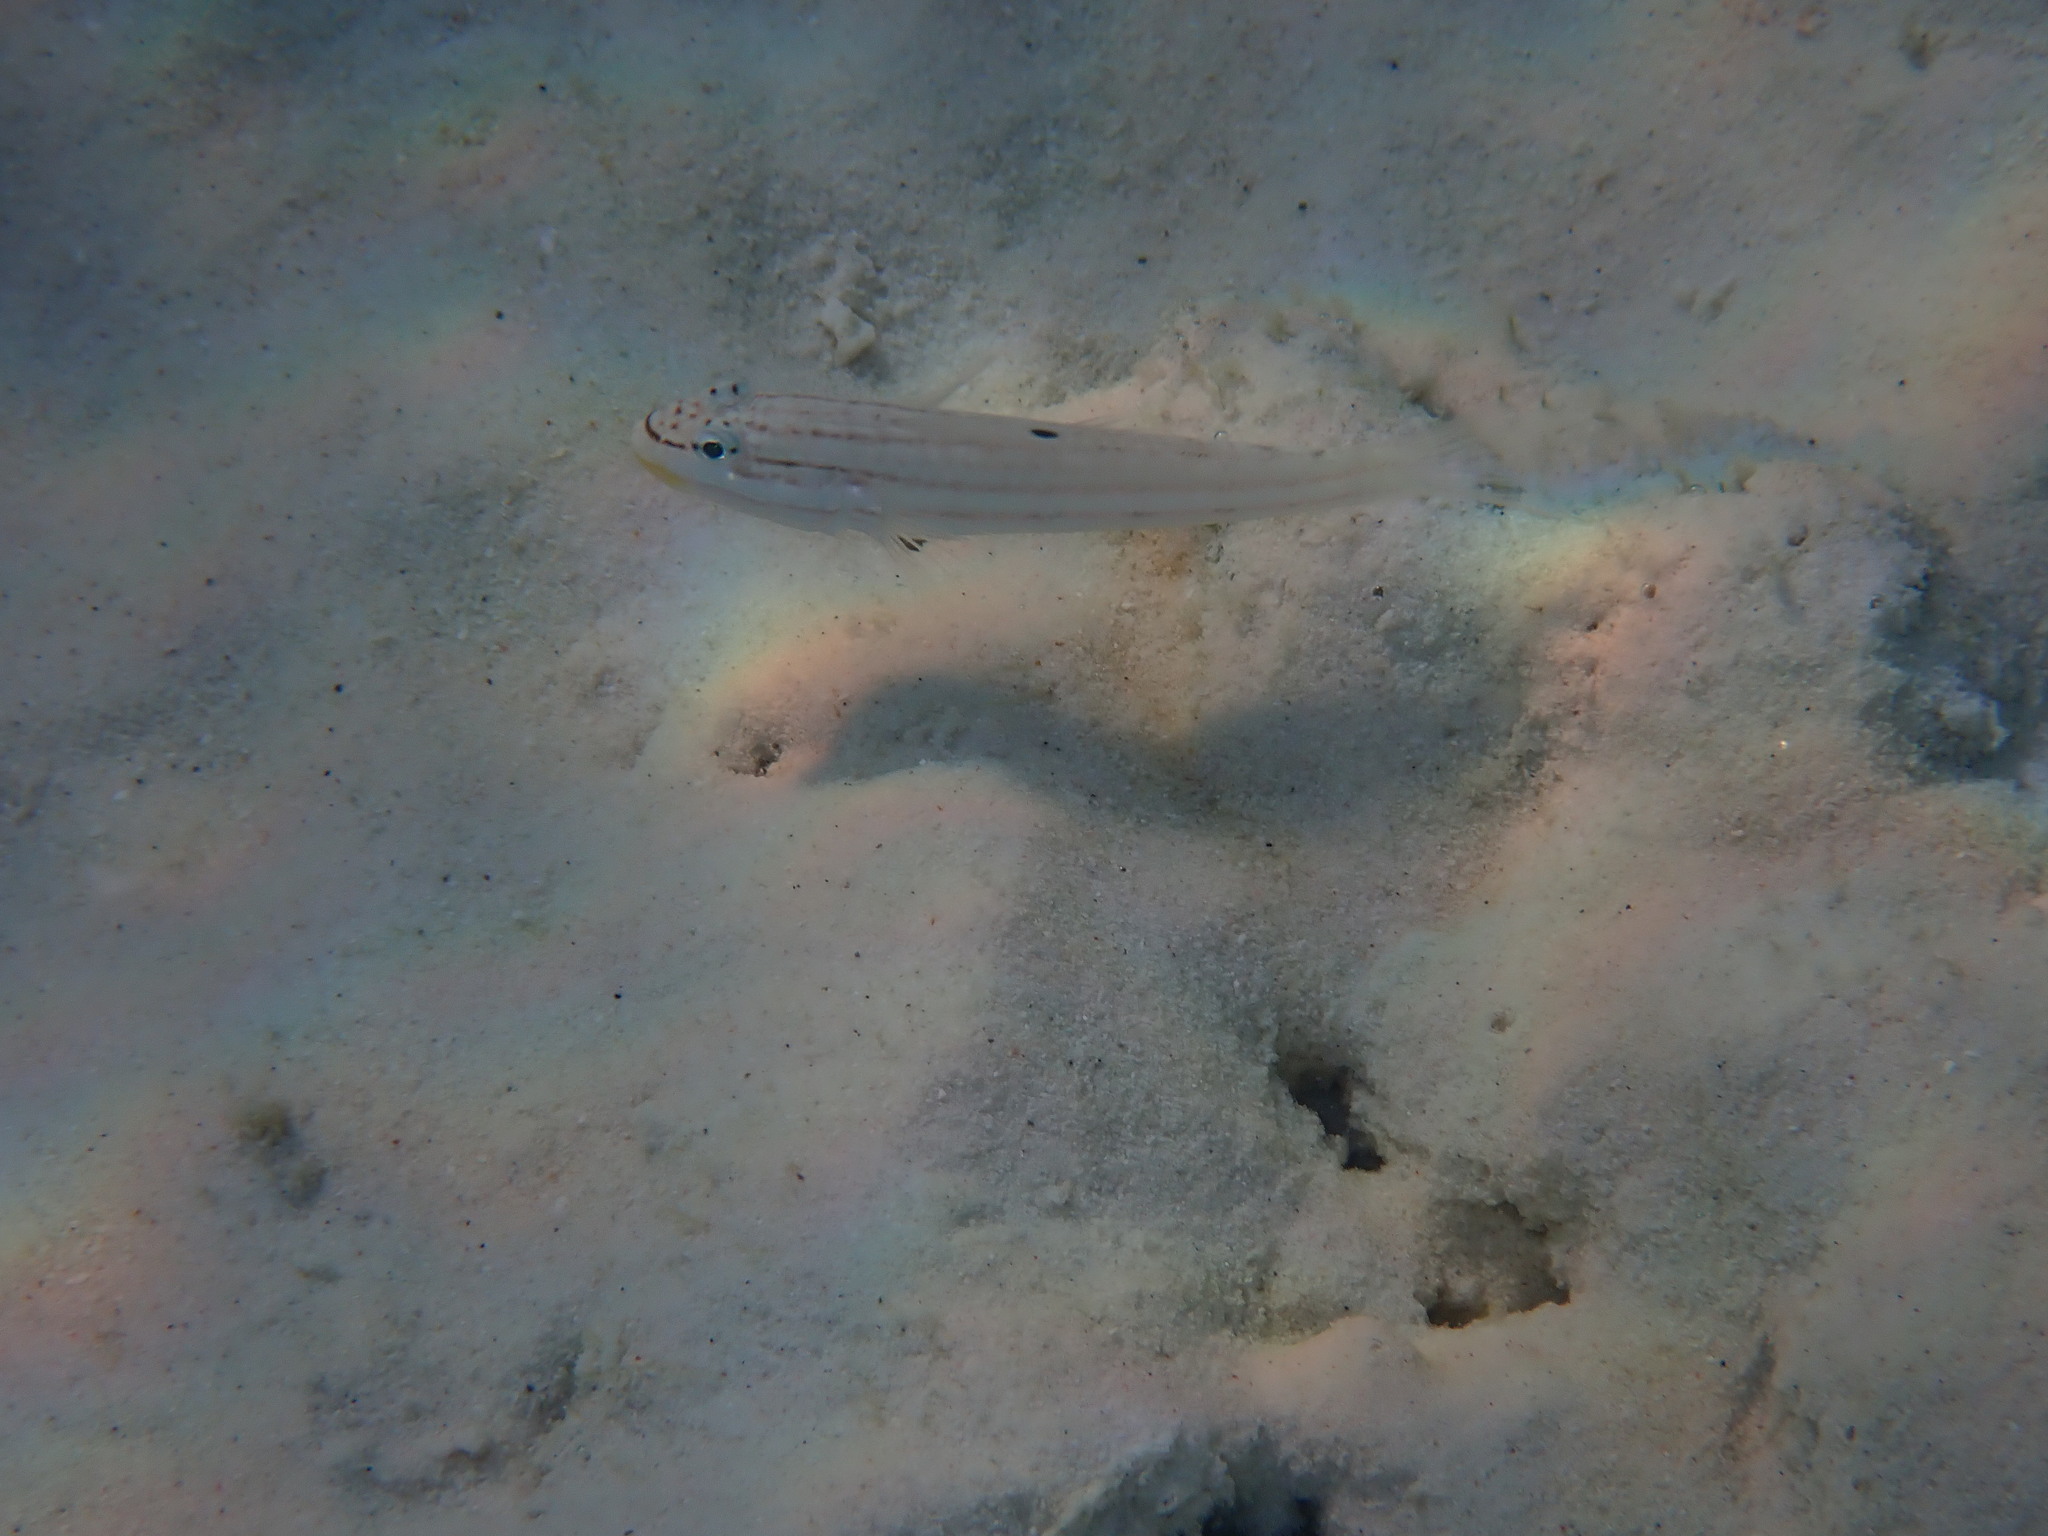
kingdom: Animalia
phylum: Chordata
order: Perciformes
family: Gobiidae
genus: Valenciennea
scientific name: Valenciennea muralis
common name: Mural goby
